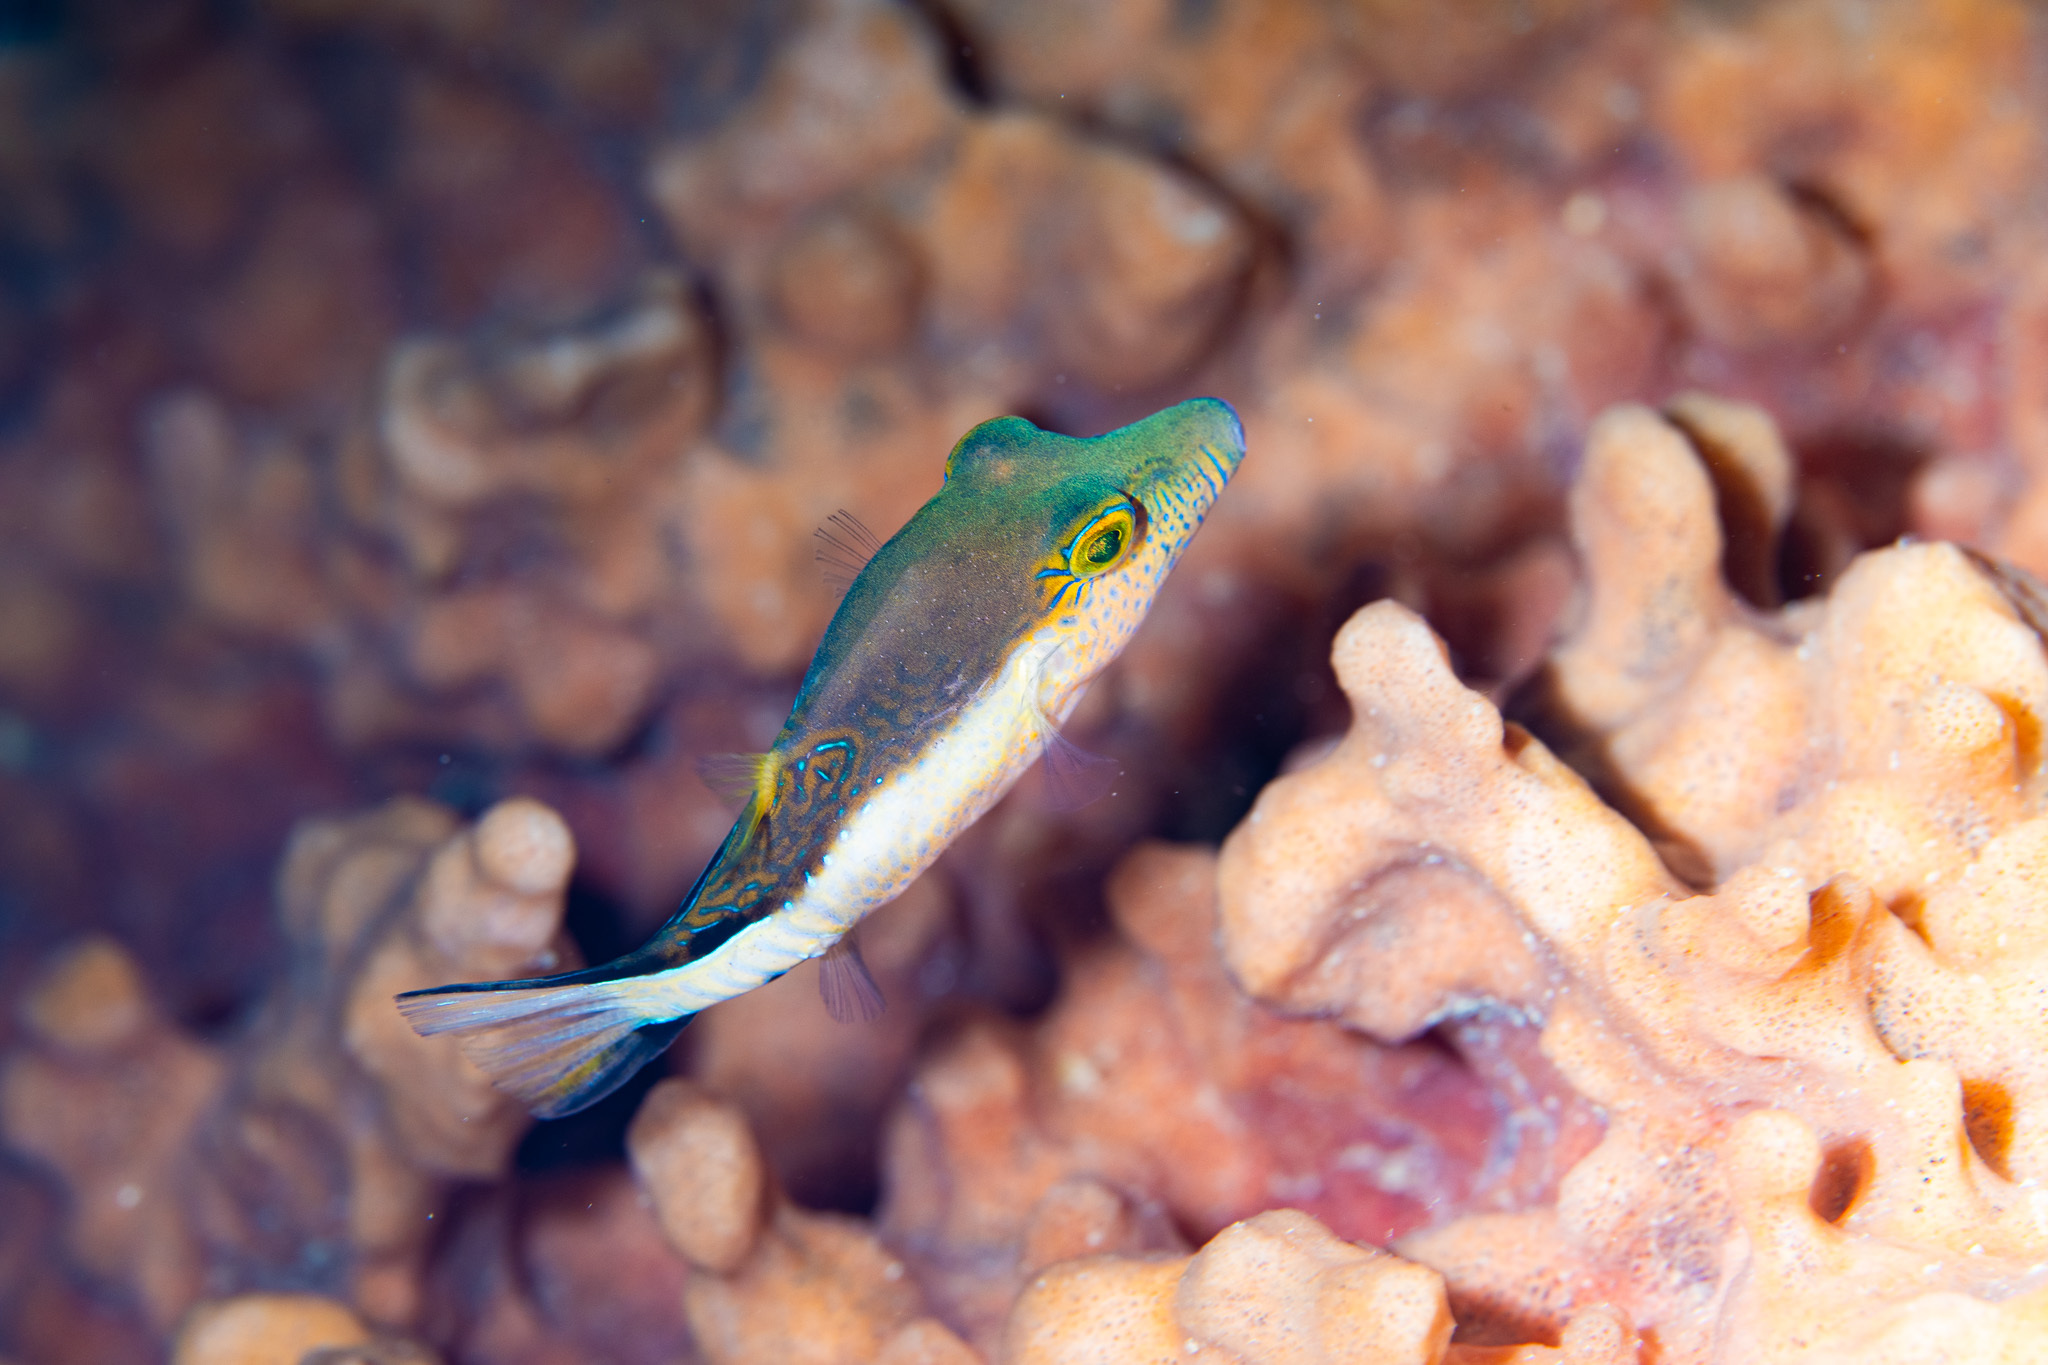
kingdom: Animalia
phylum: Chordata
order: Tetraodontiformes
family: Tetraodontidae
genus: Canthigaster
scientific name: Canthigaster rostrata
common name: Caribbean sharpnose-puffer
